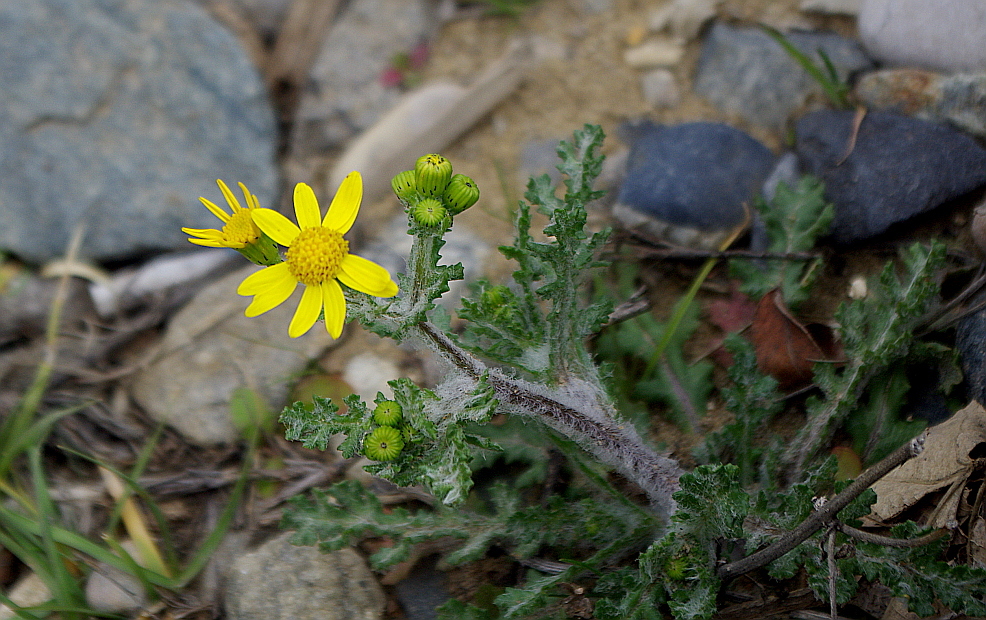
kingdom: Plantae
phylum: Tracheophyta
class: Magnoliopsida
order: Asterales
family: Asteraceae
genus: Senecio
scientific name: Senecio vernalis
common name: Eastern groundsel
